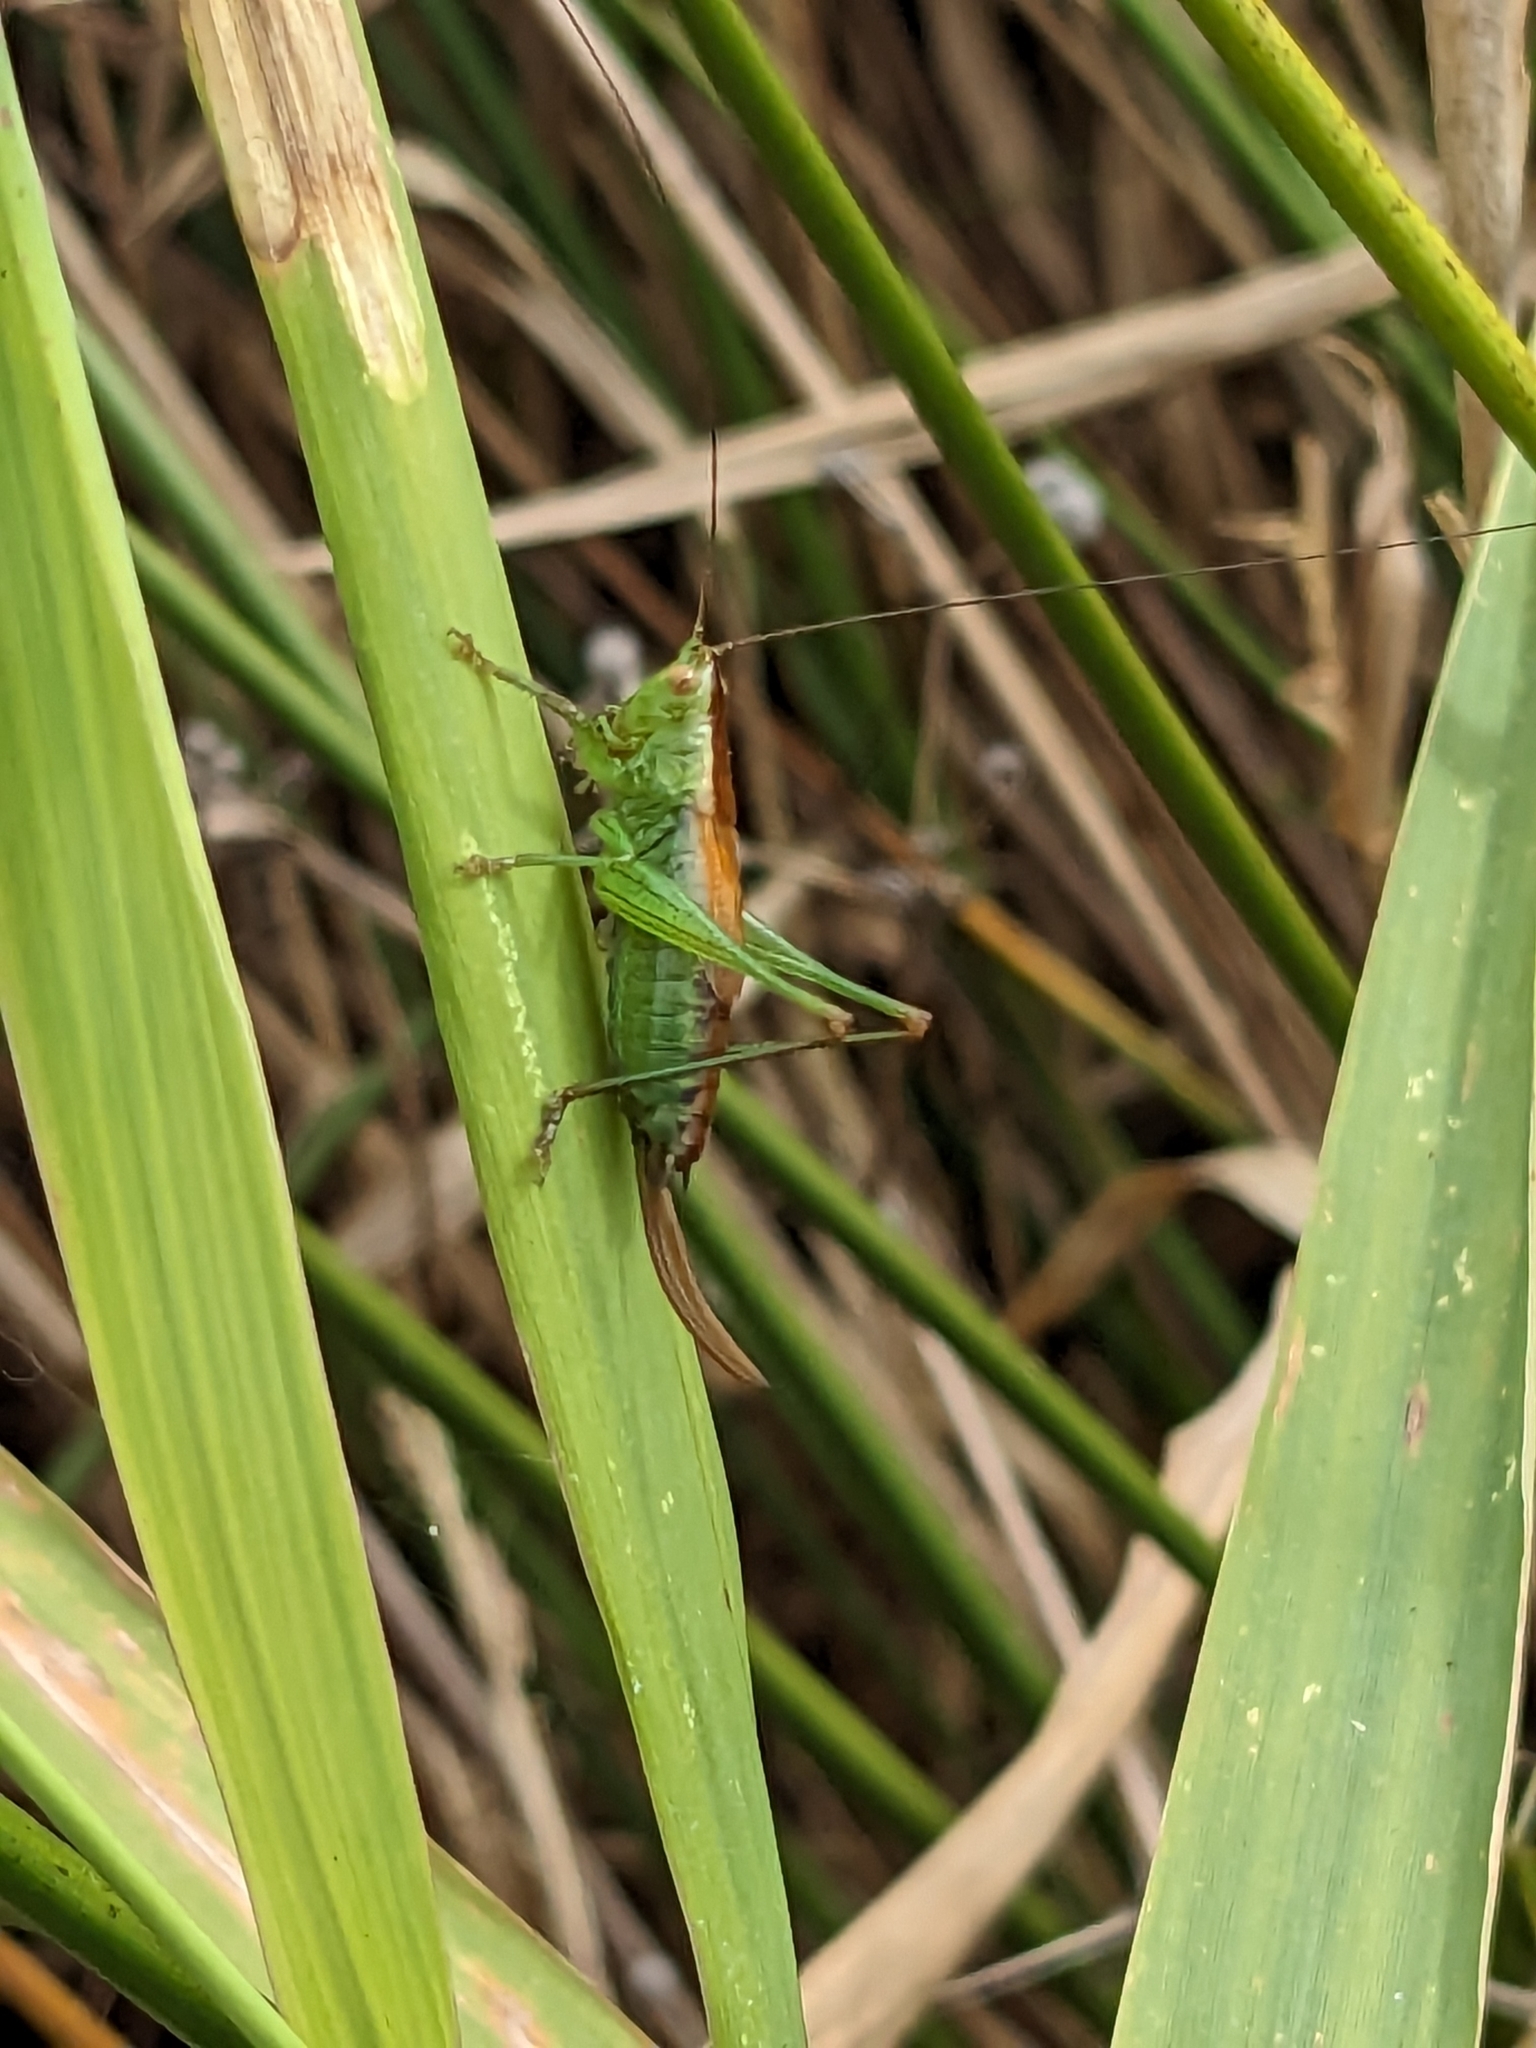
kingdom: Animalia
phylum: Arthropoda
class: Insecta
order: Orthoptera
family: Tettigoniidae
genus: Conocephalus
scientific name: Conocephalus dorsalis
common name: Short-winged conehead
